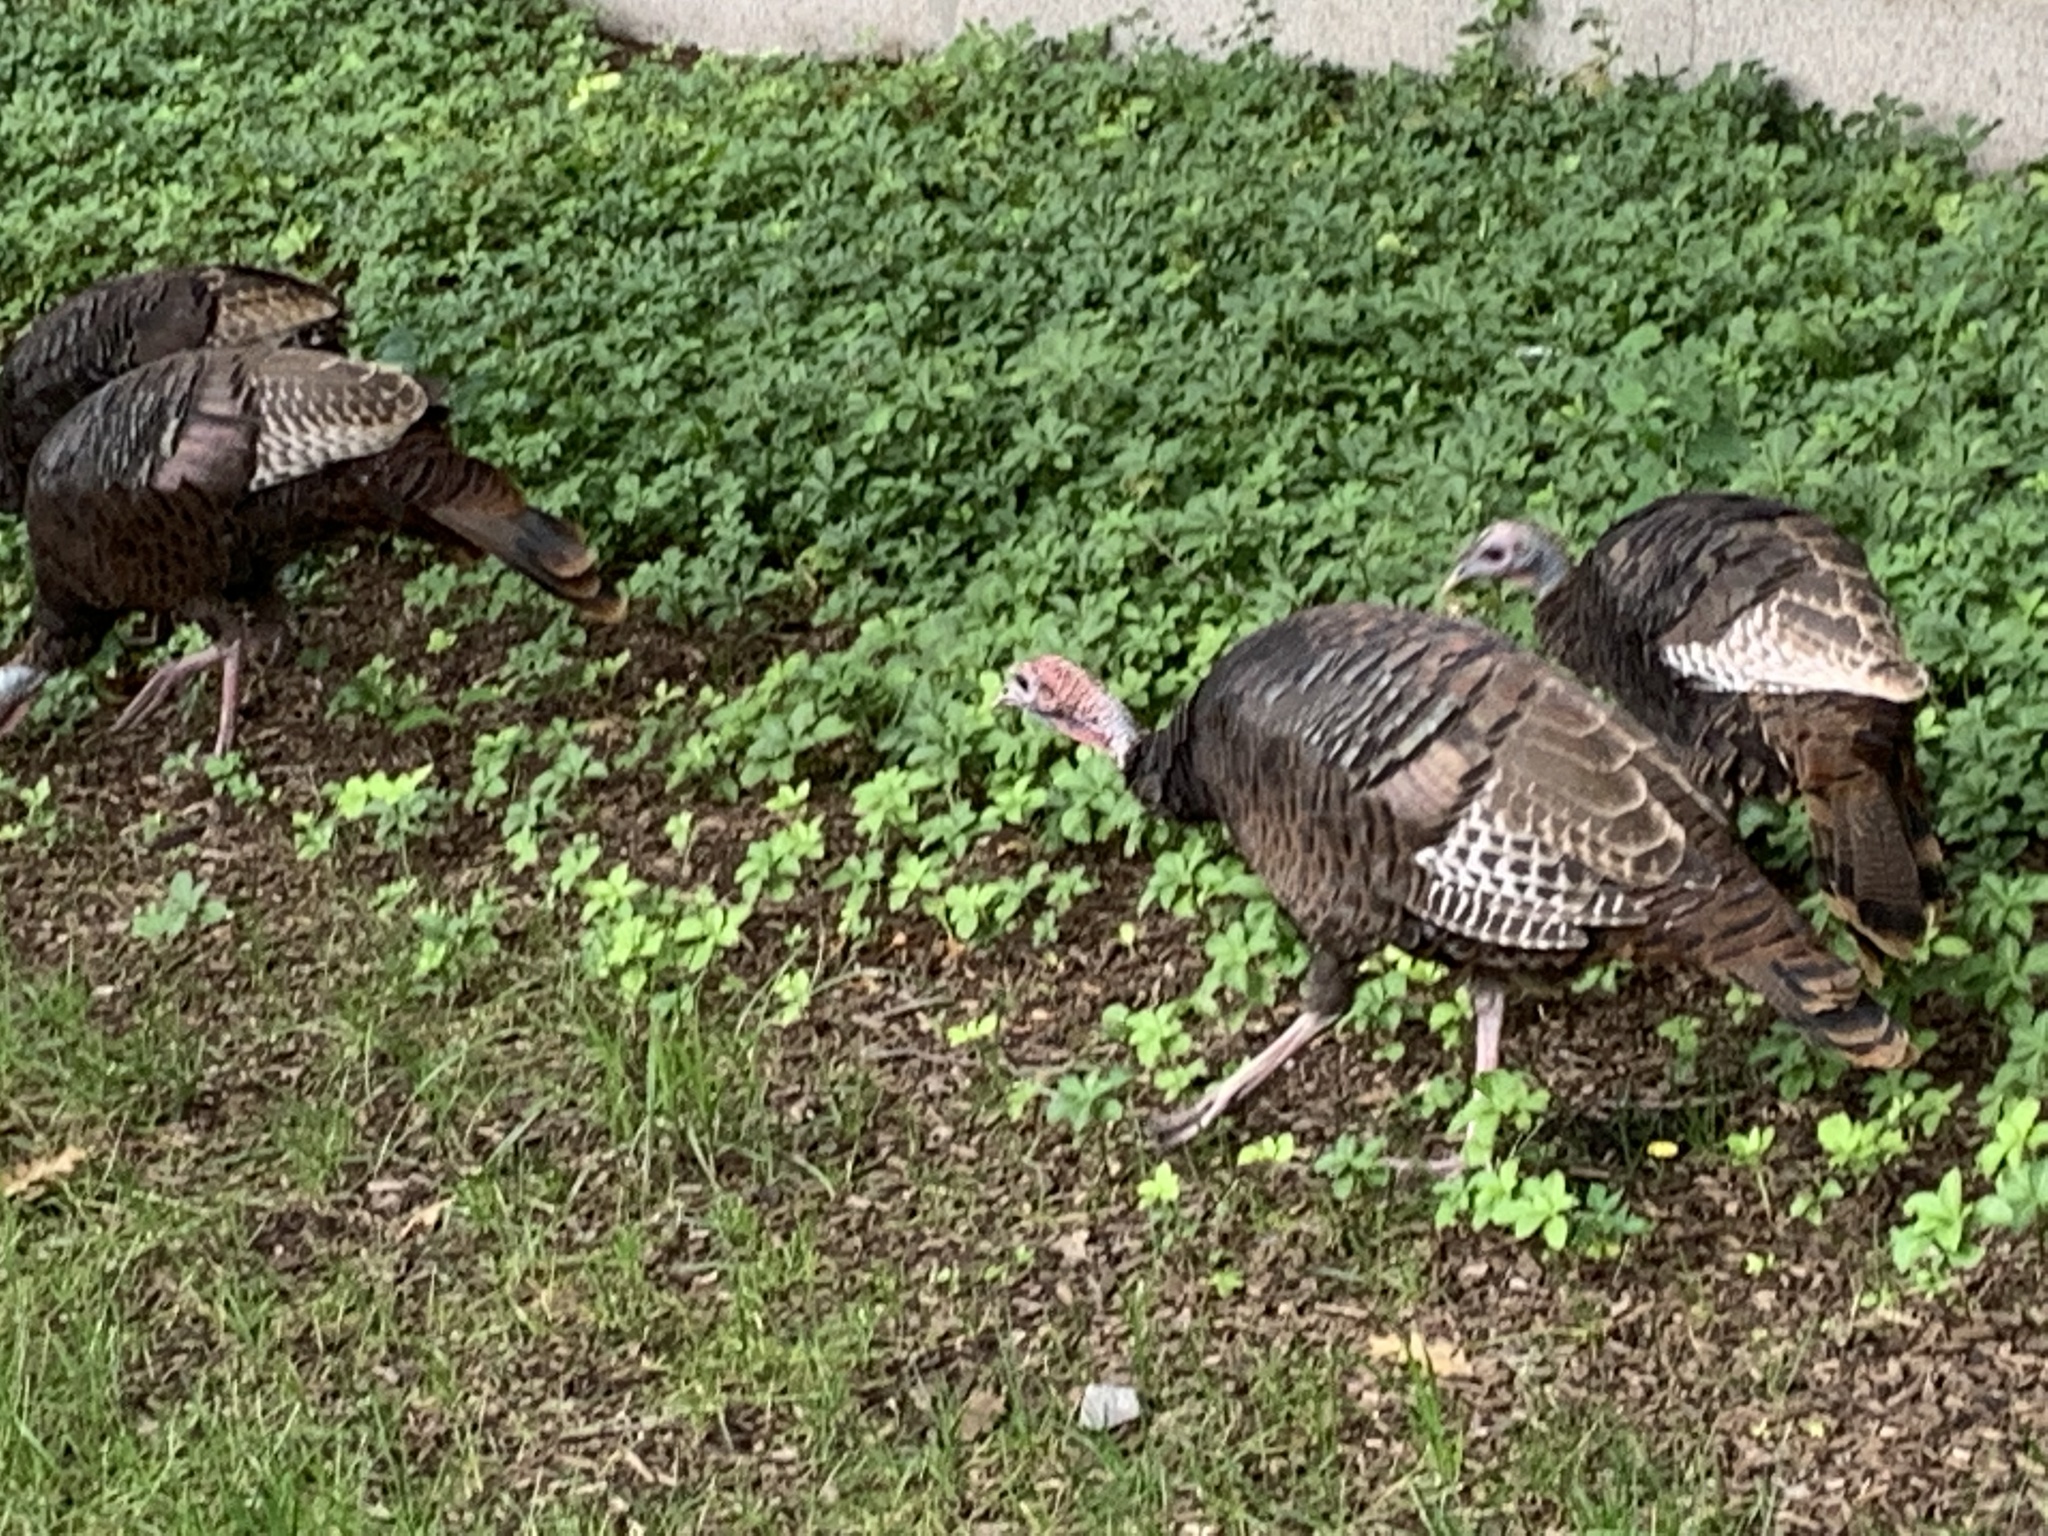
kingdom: Animalia
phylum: Chordata
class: Aves
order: Galliformes
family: Phasianidae
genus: Meleagris
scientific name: Meleagris gallopavo
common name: Wild turkey
